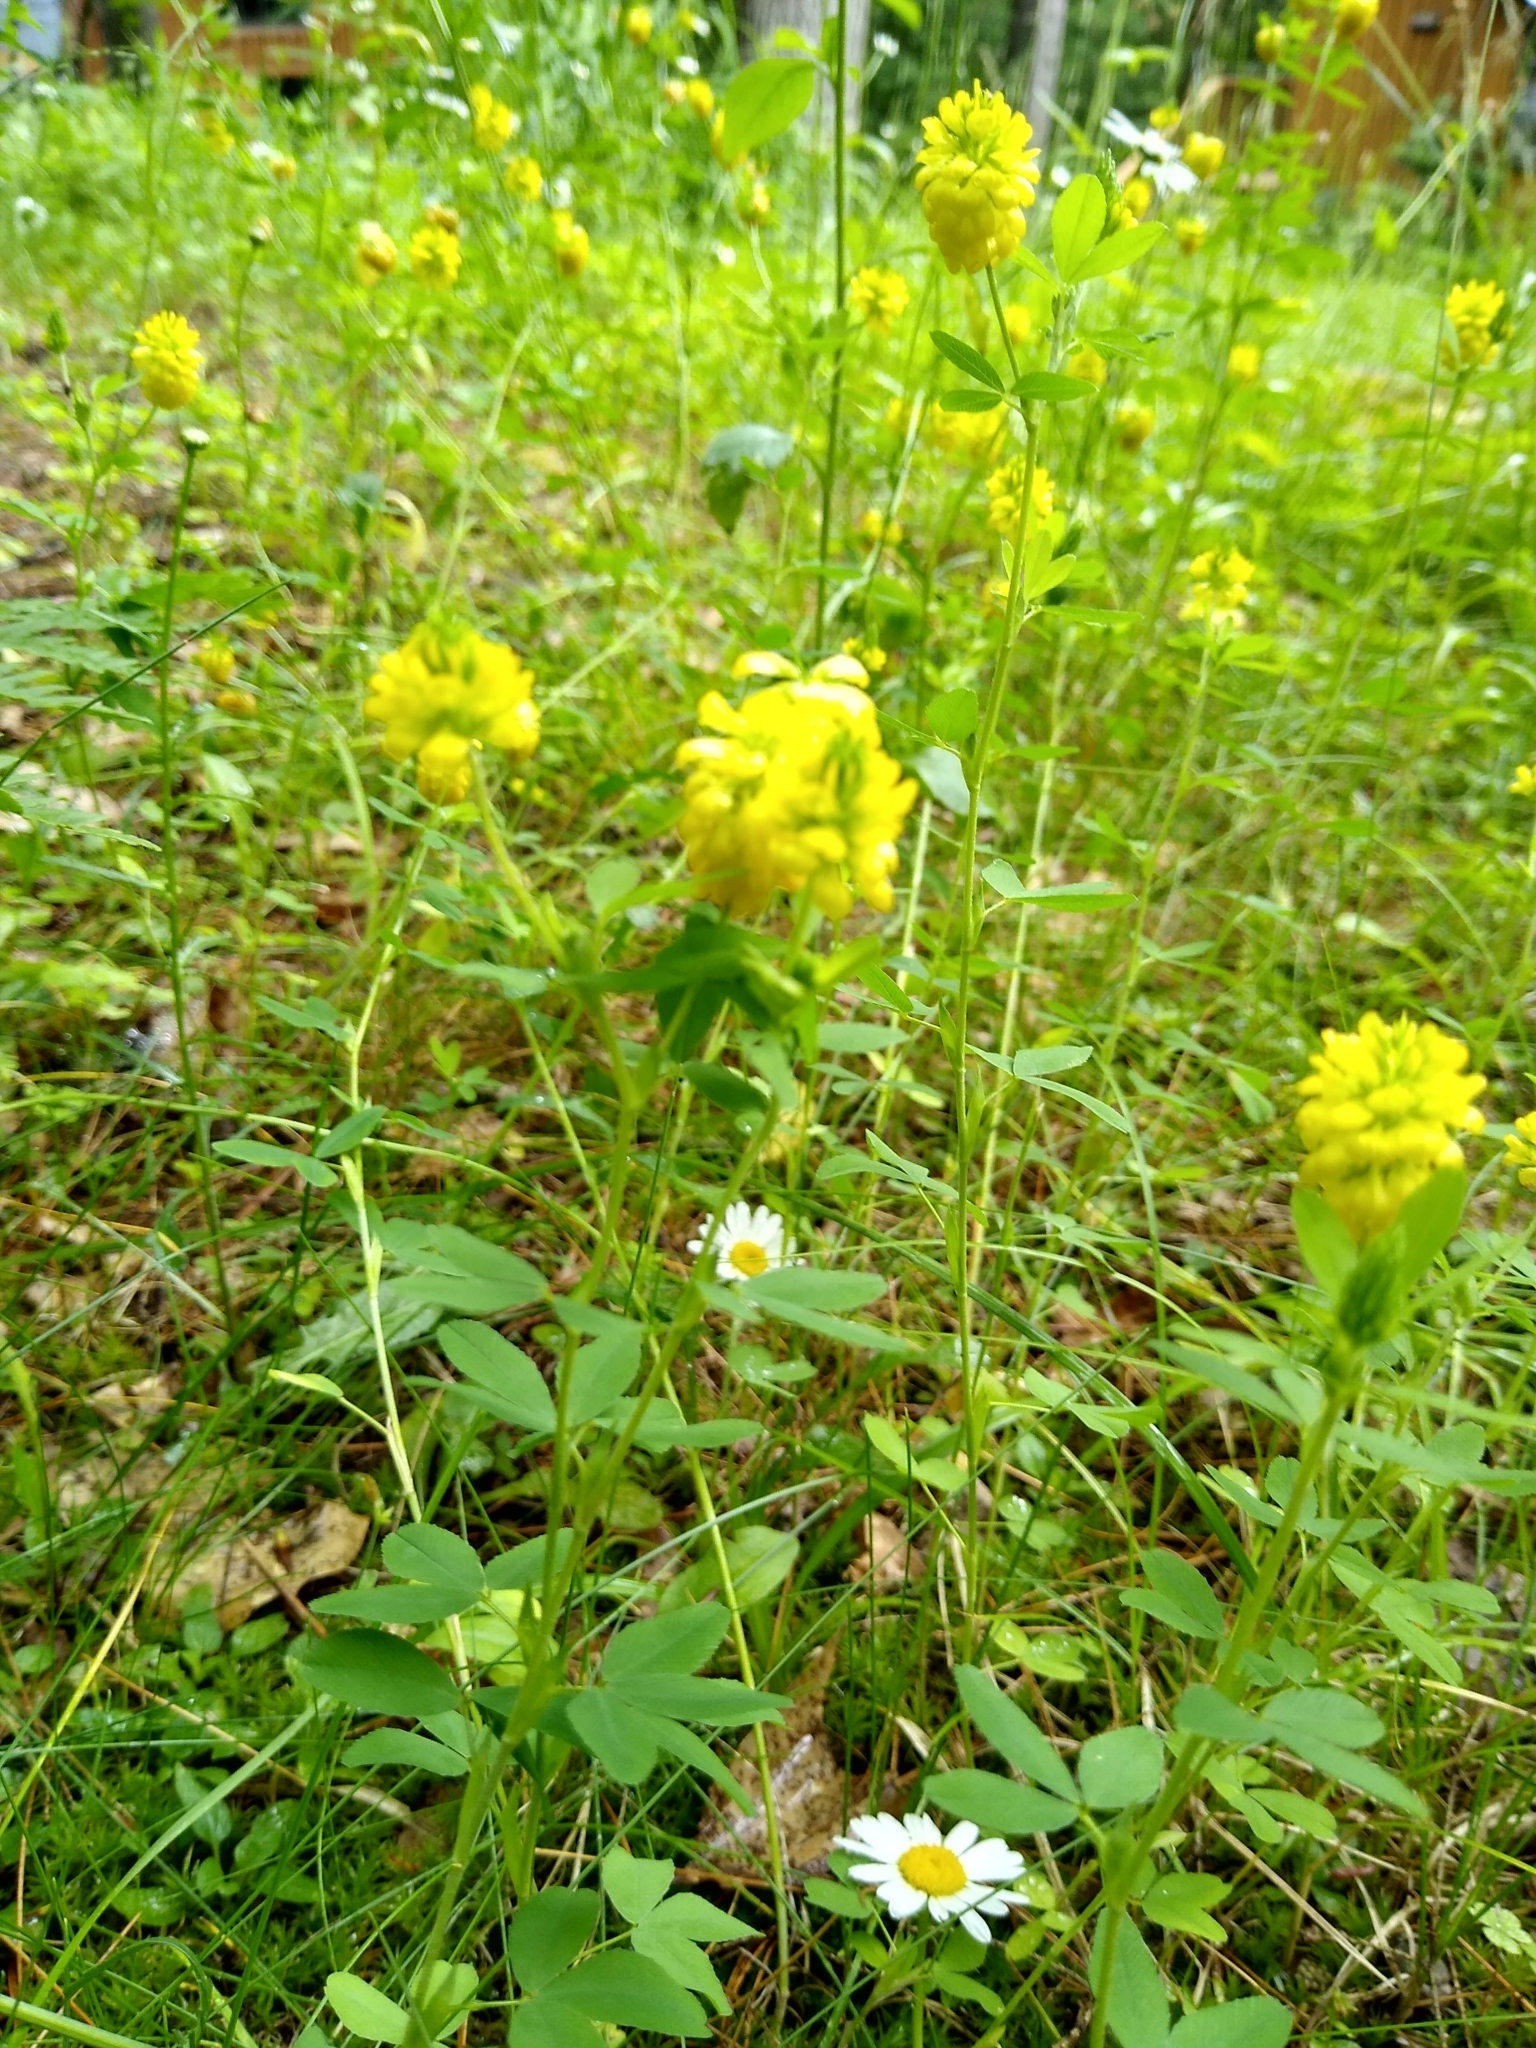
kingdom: Plantae
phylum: Tracheophyta
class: Magnoliopsida
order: Fabales
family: Fabaceae
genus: Trifolium
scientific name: Trifolium aureum
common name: Golden clover
